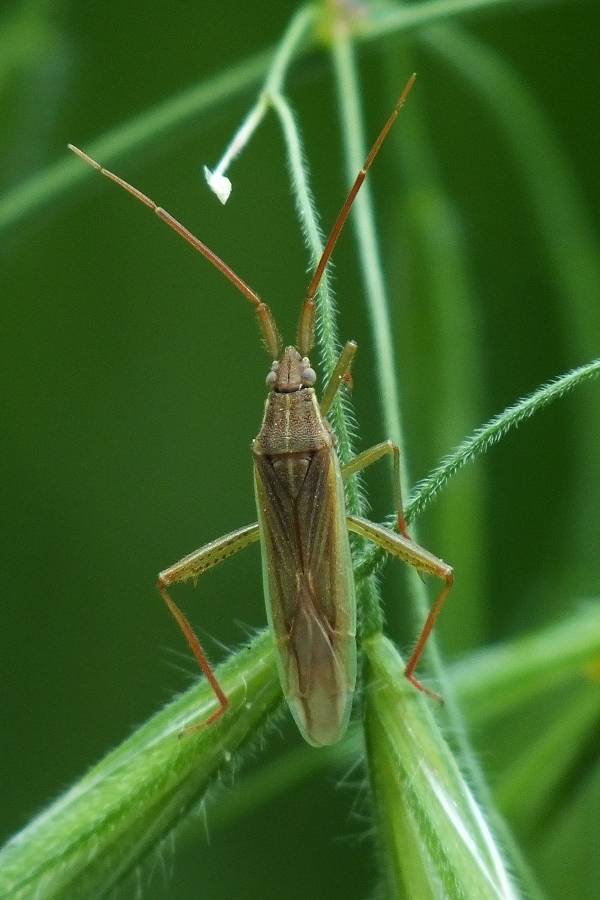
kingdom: Animalia
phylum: Arthropoda
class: Insecta
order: Hemiptera
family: Miridae
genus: Stenodema
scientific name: Stenodema calcarata
